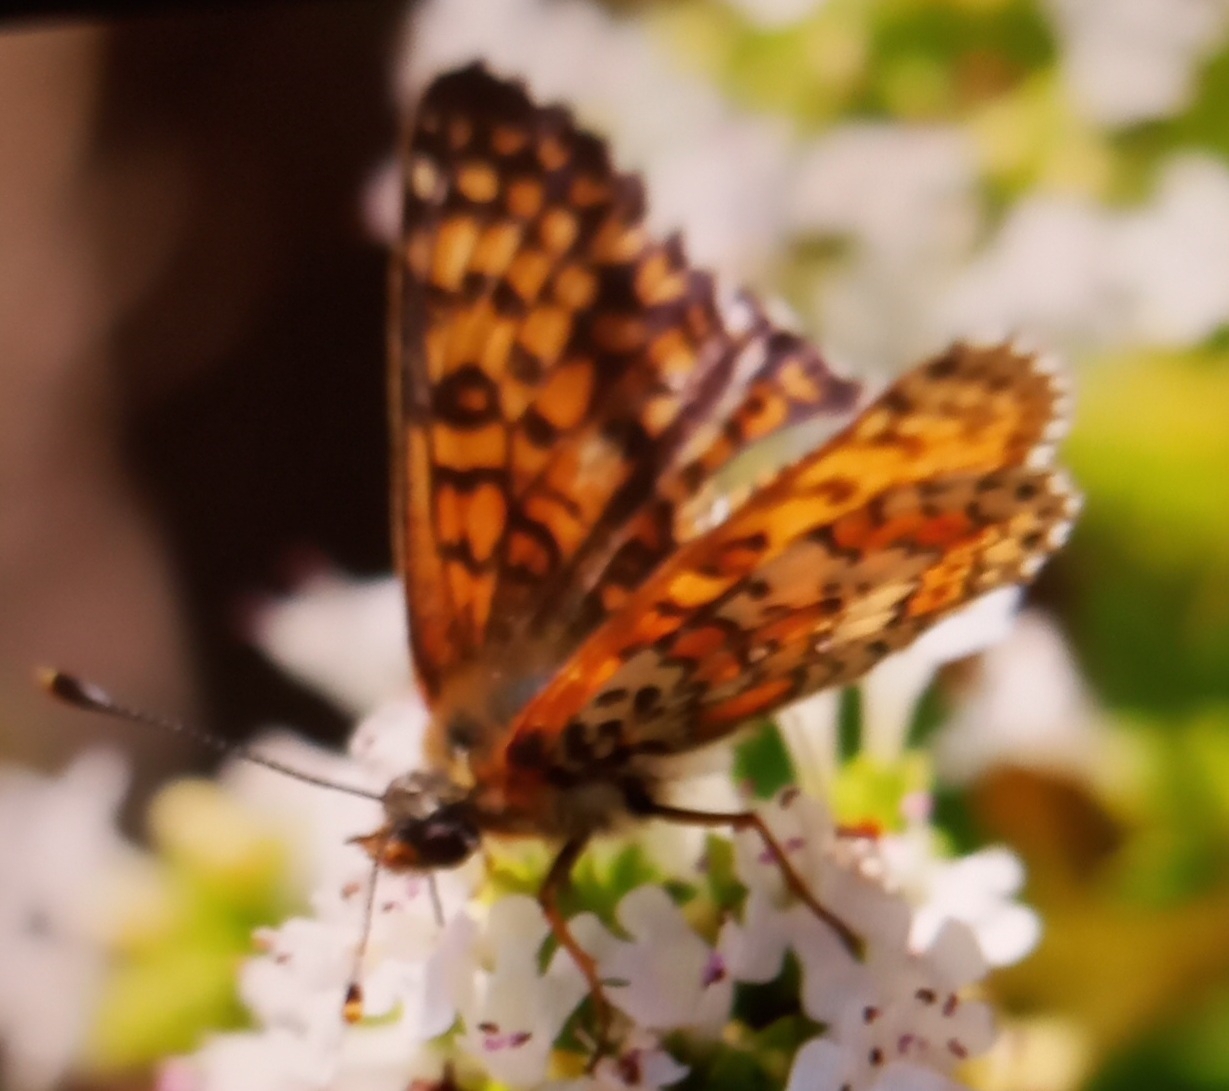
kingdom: Animalia
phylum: Arthropoda
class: Insecta
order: Lepidoptera
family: Nymphalidae
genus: Melitaea
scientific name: Melitaea cinxia
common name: Glanville fritillary
